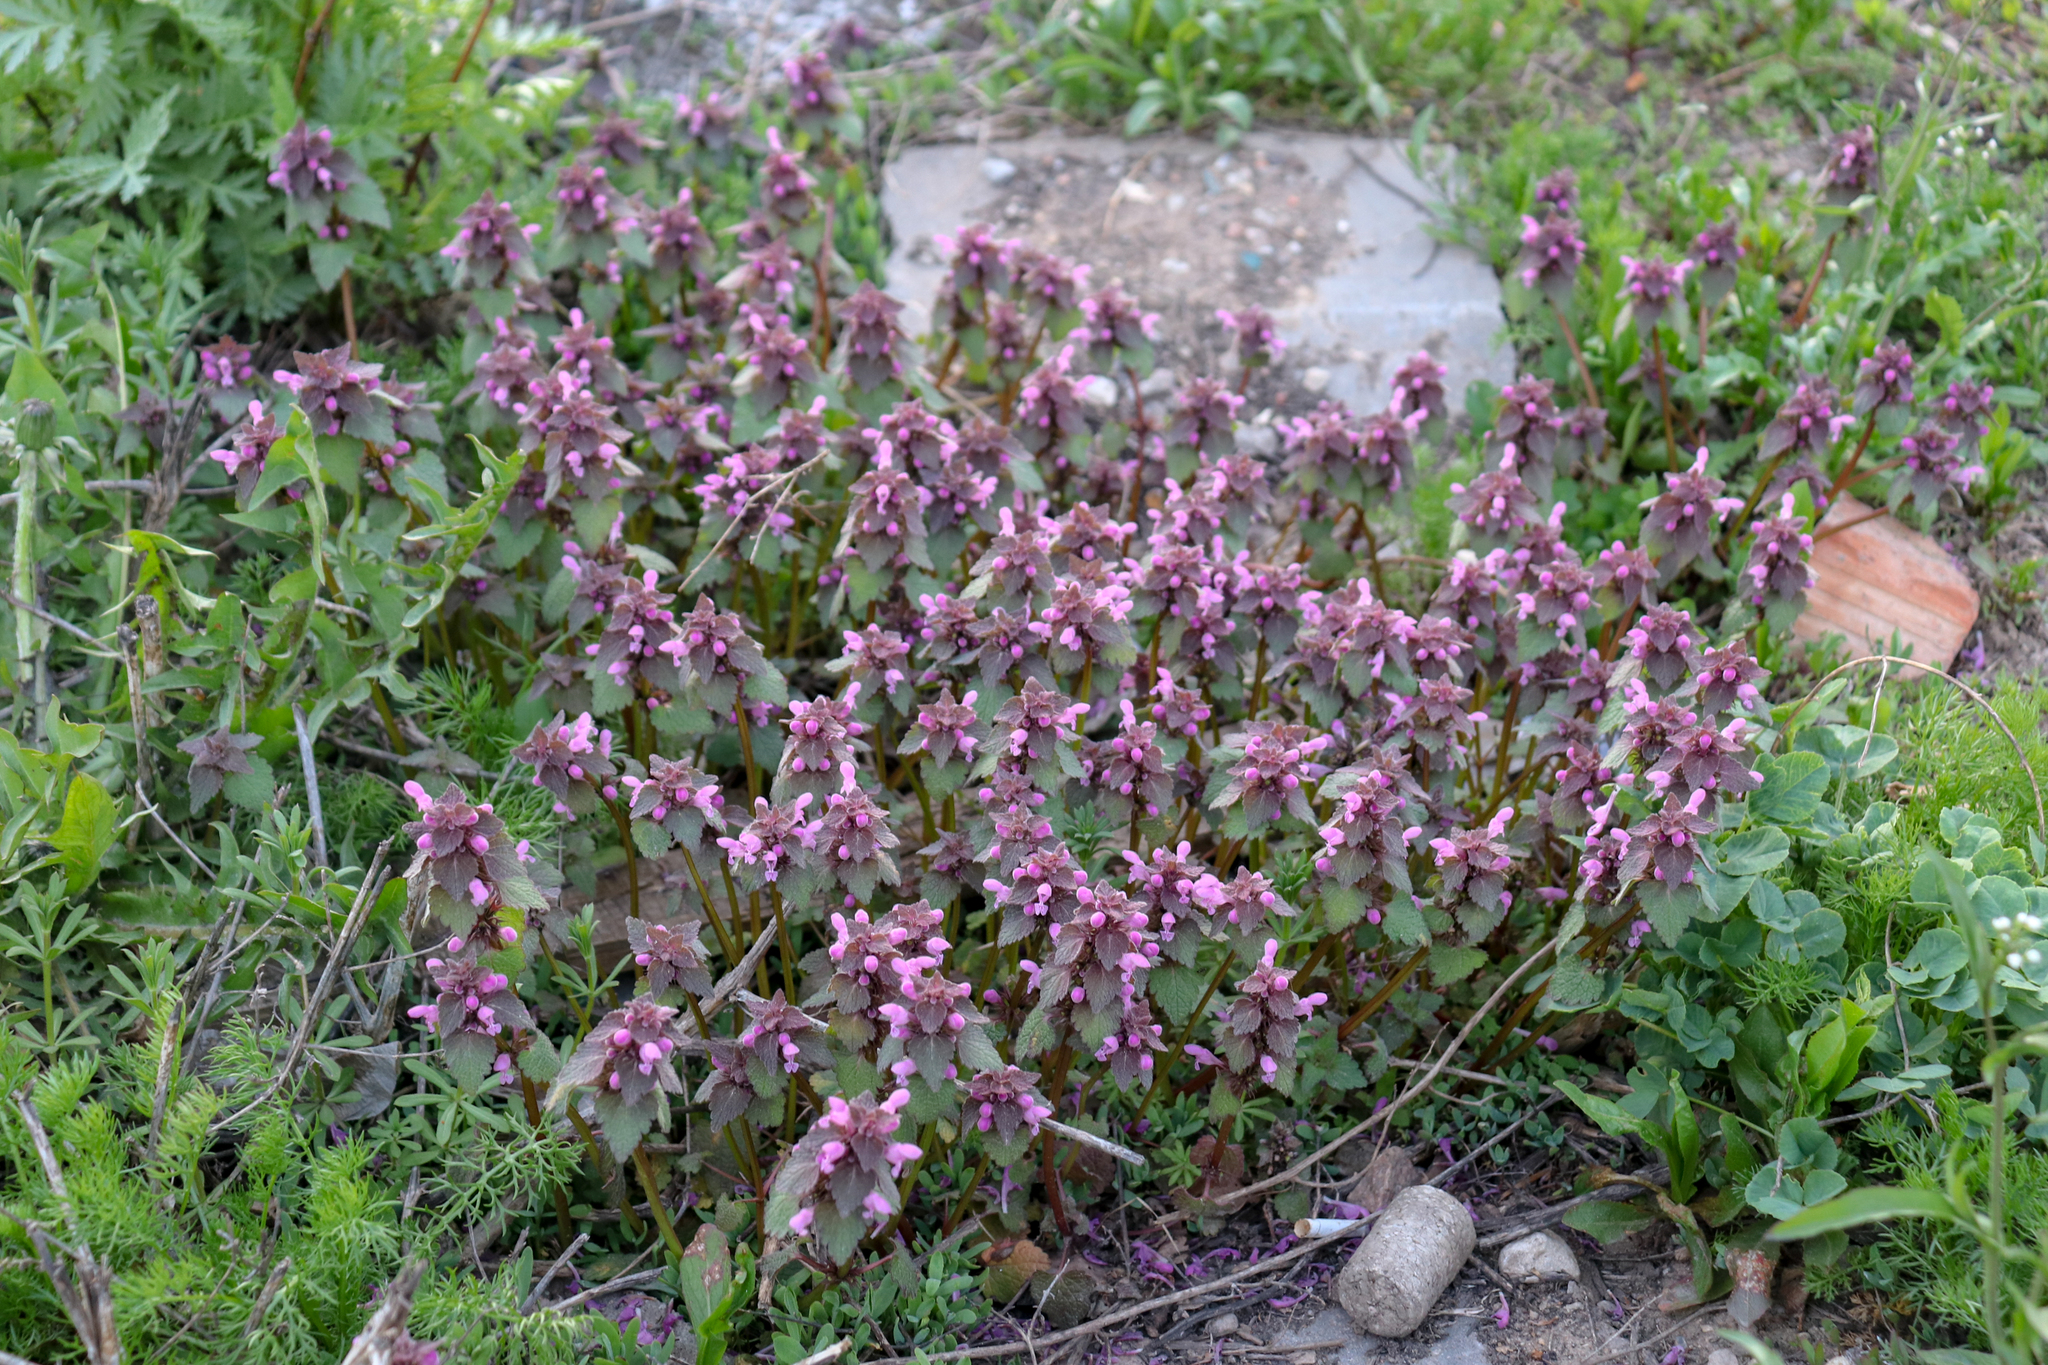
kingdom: Plantae
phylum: Tracheophyta
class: Magnoliopsida
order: Lamiales
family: Lamiaceae
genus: Lamium
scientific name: Lamium purpureum
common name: Red dead-nettle
